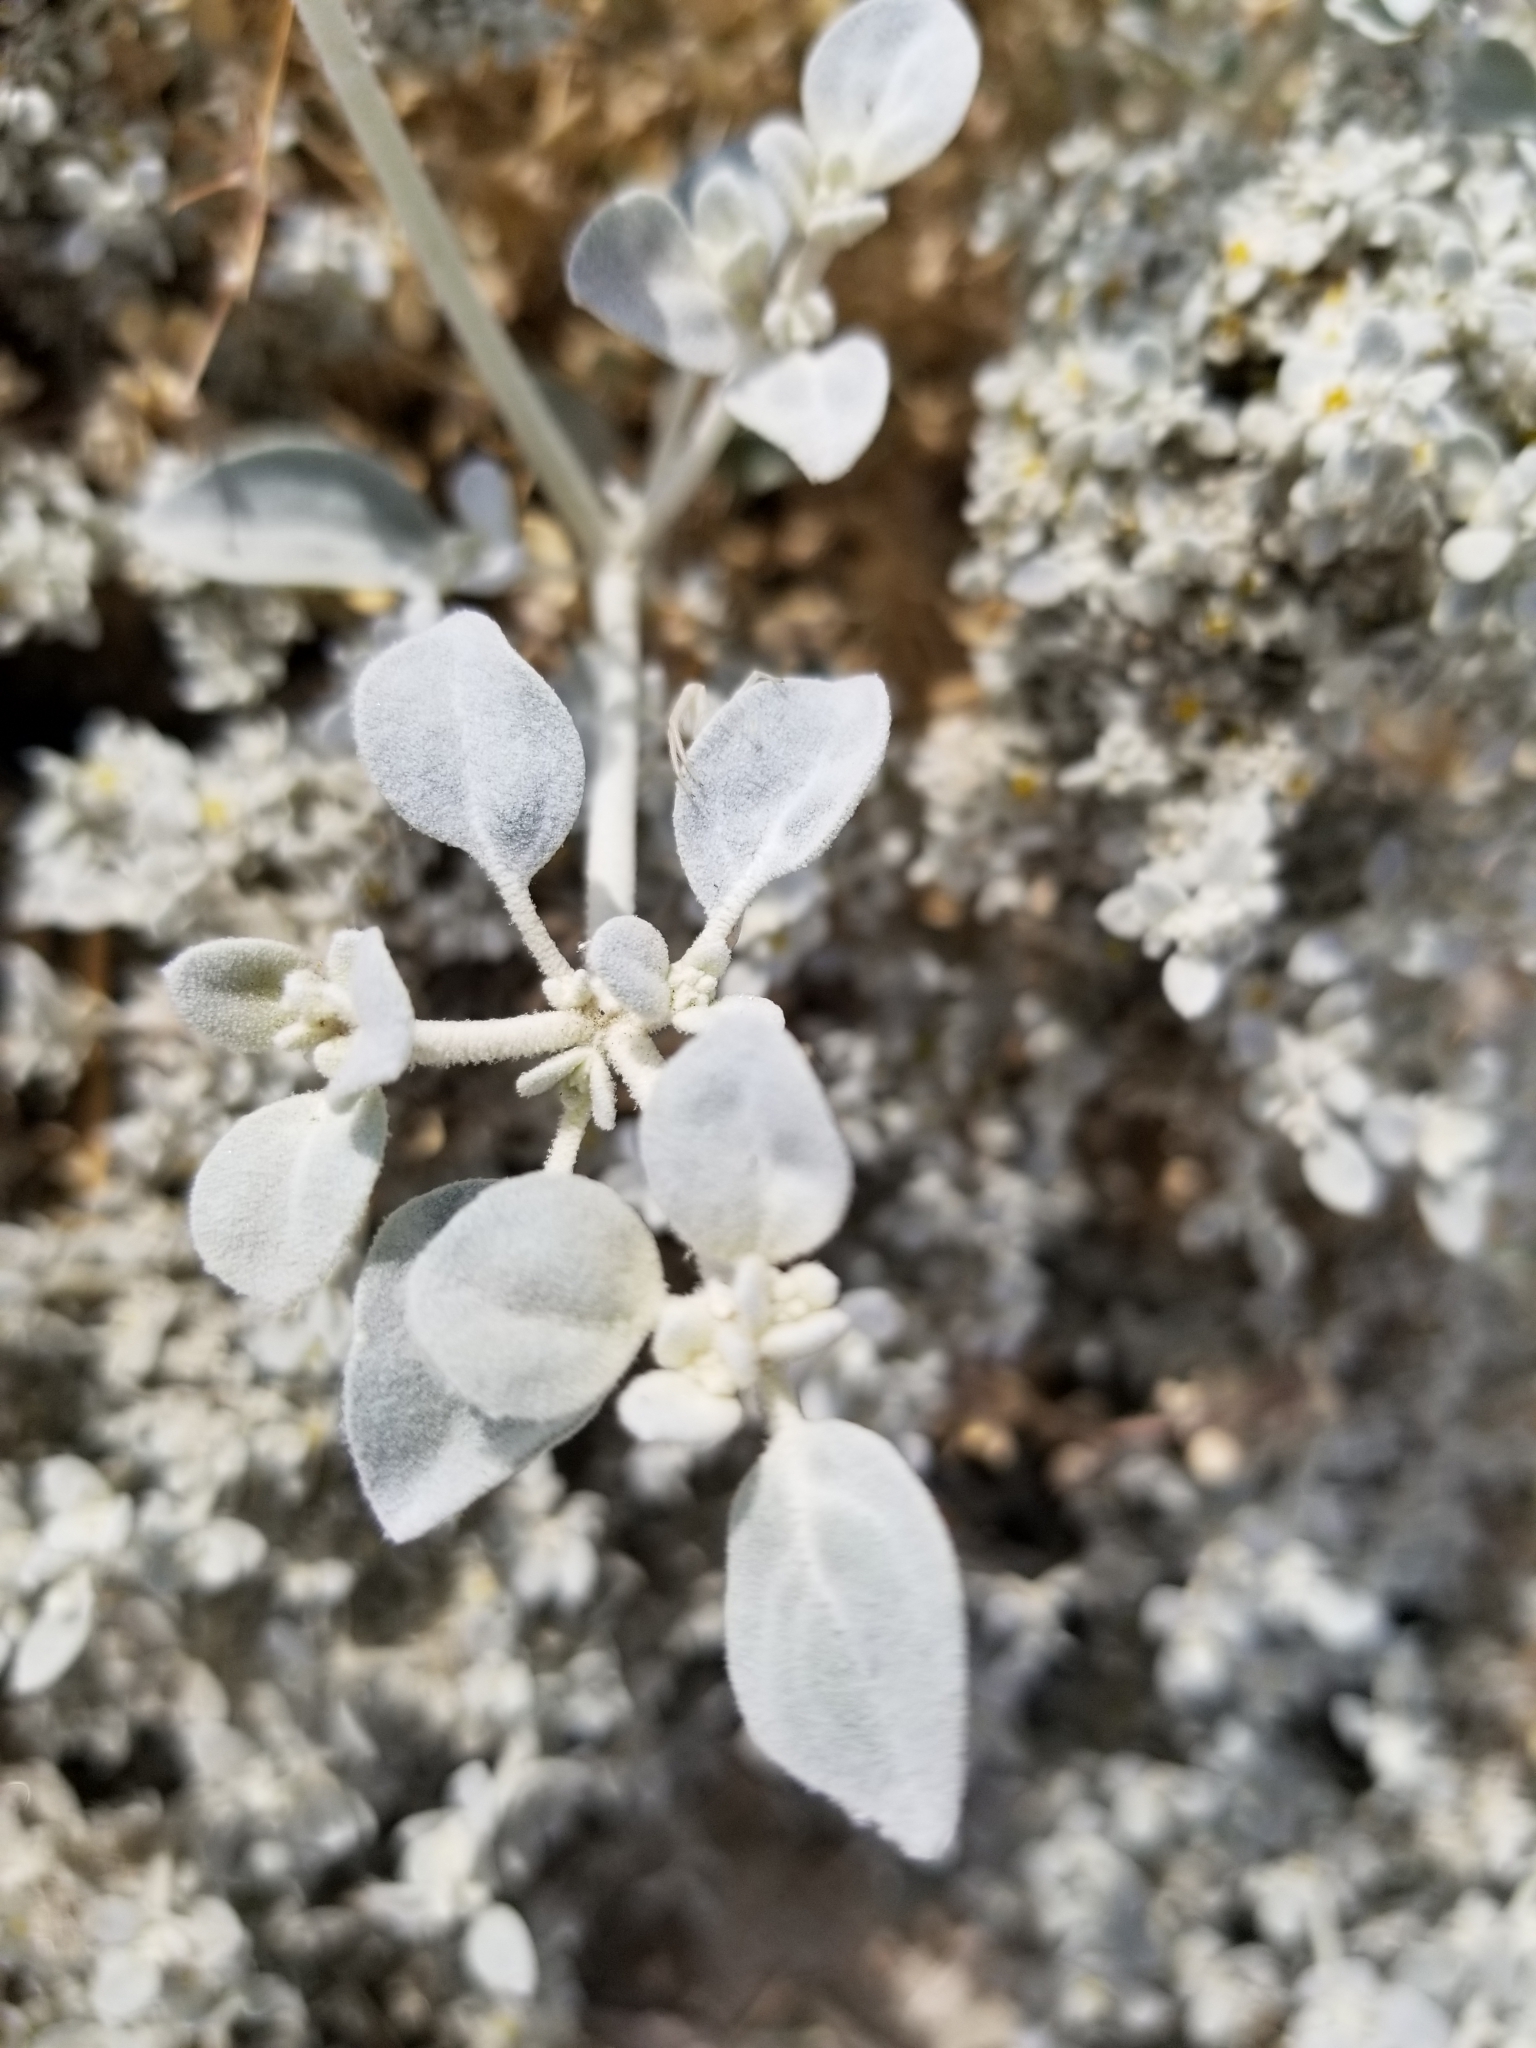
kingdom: Plantae
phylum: Tracheophyta
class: Magnoliopsida
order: Caryophyllales
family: Amaranthaceae
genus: Tidestromia
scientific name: Tidestromia suffruticosa
